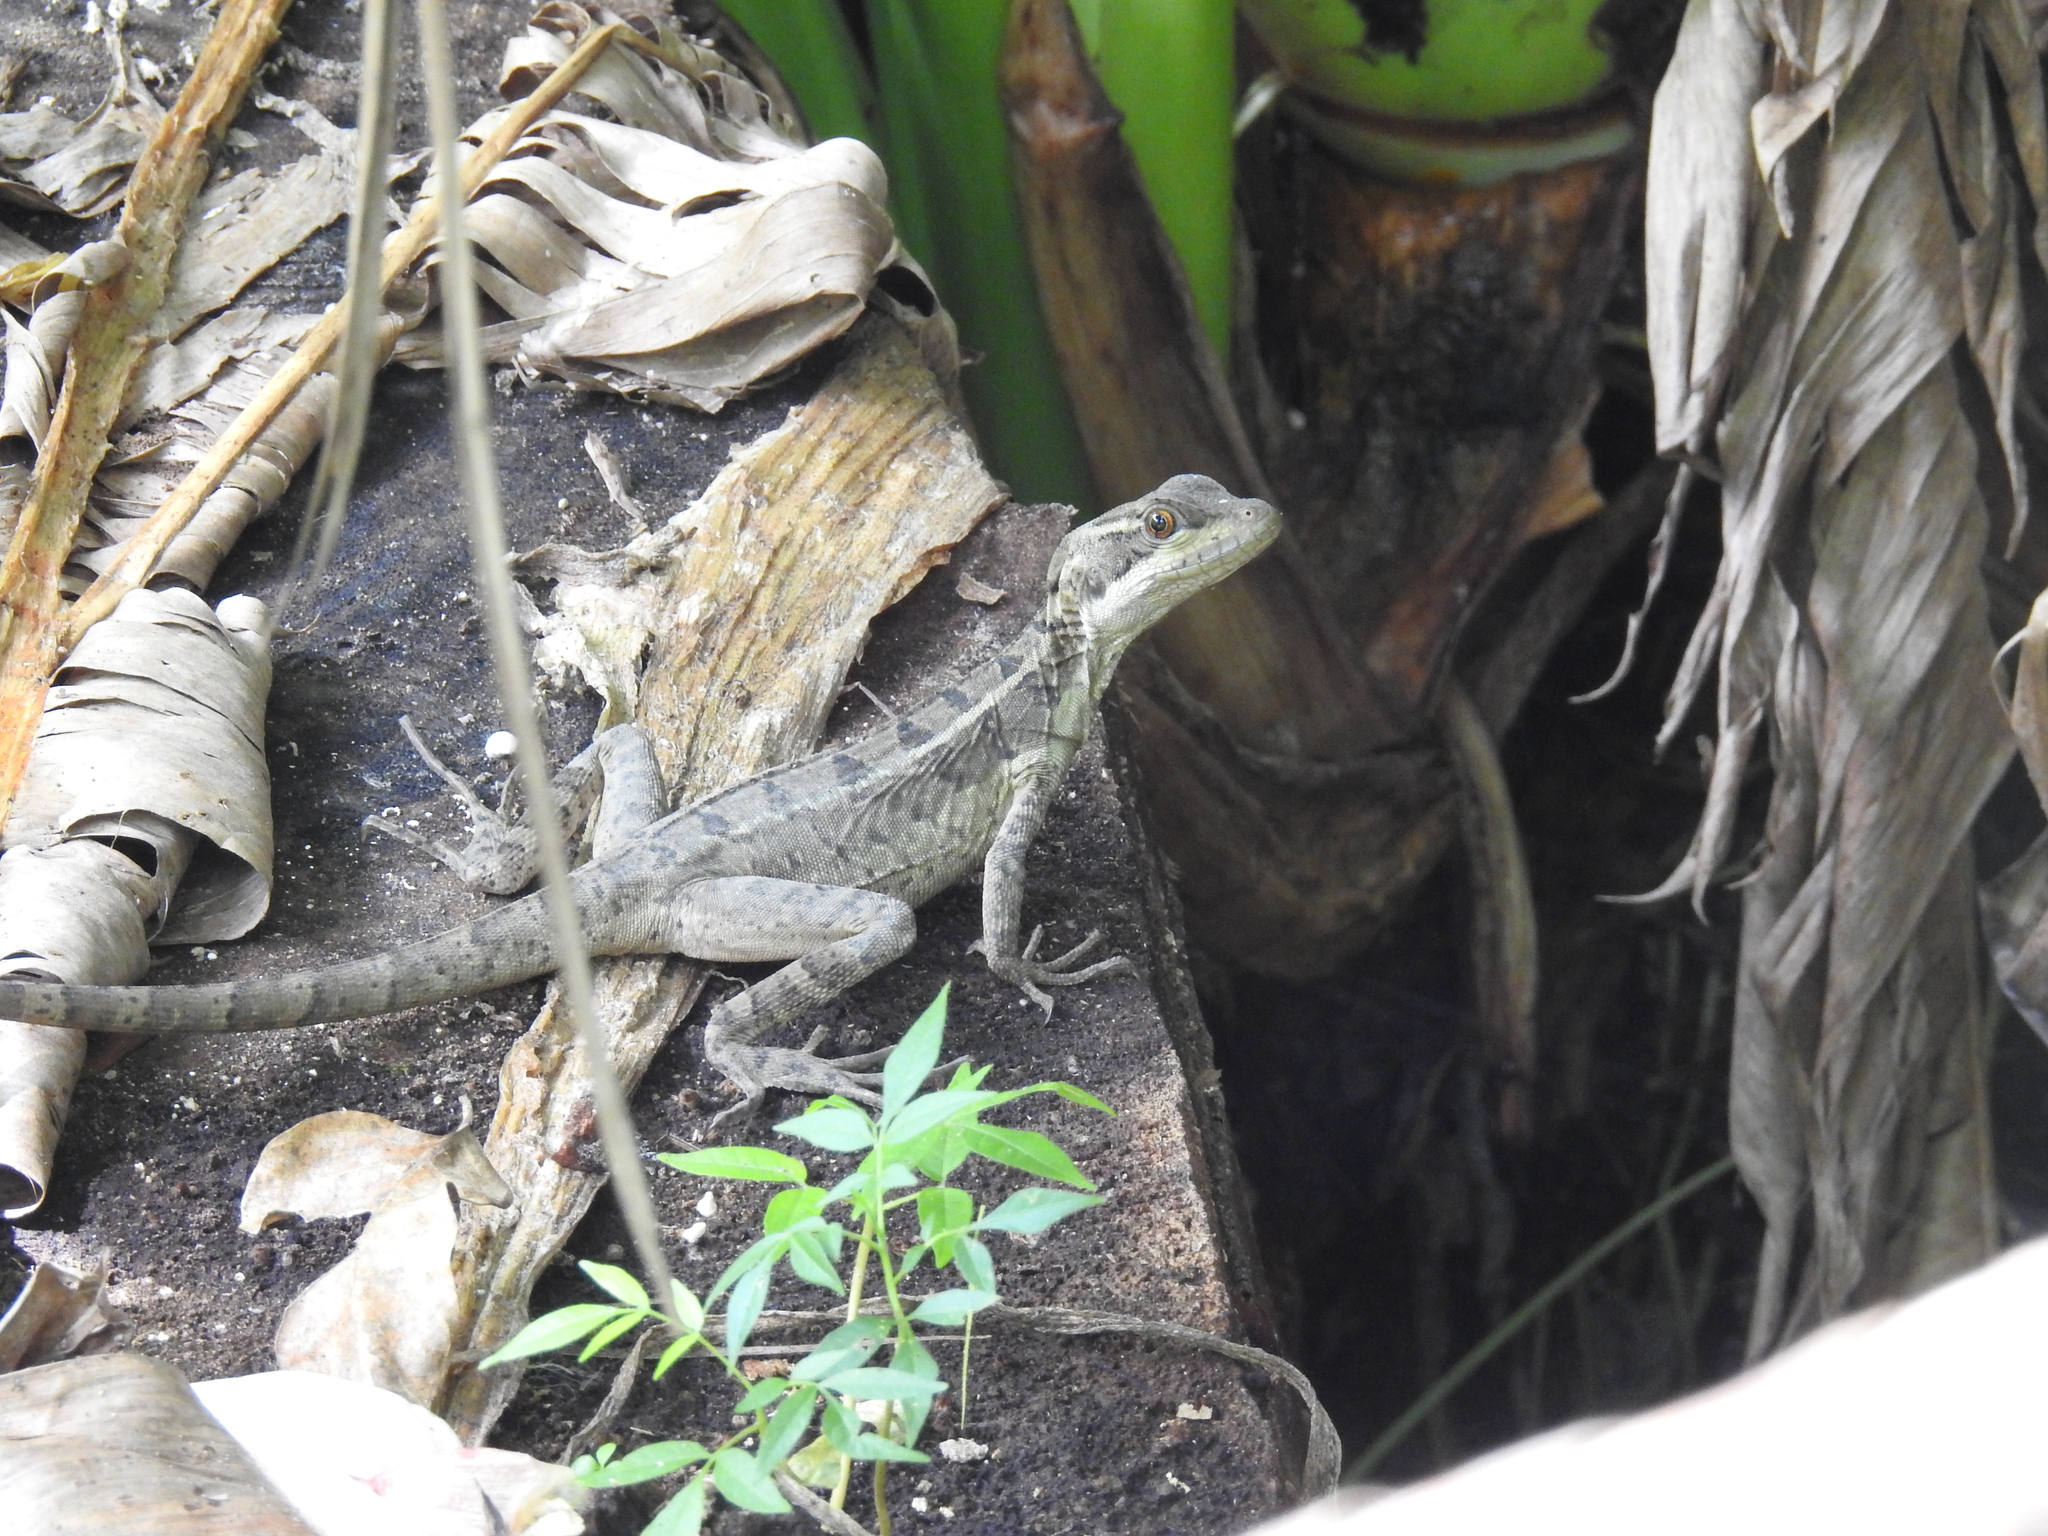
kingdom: Animalia
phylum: Chordata
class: Squamata
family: Corytophanidae
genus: Basiliscus
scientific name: Basiliscus basiliscus
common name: Common basilisk
